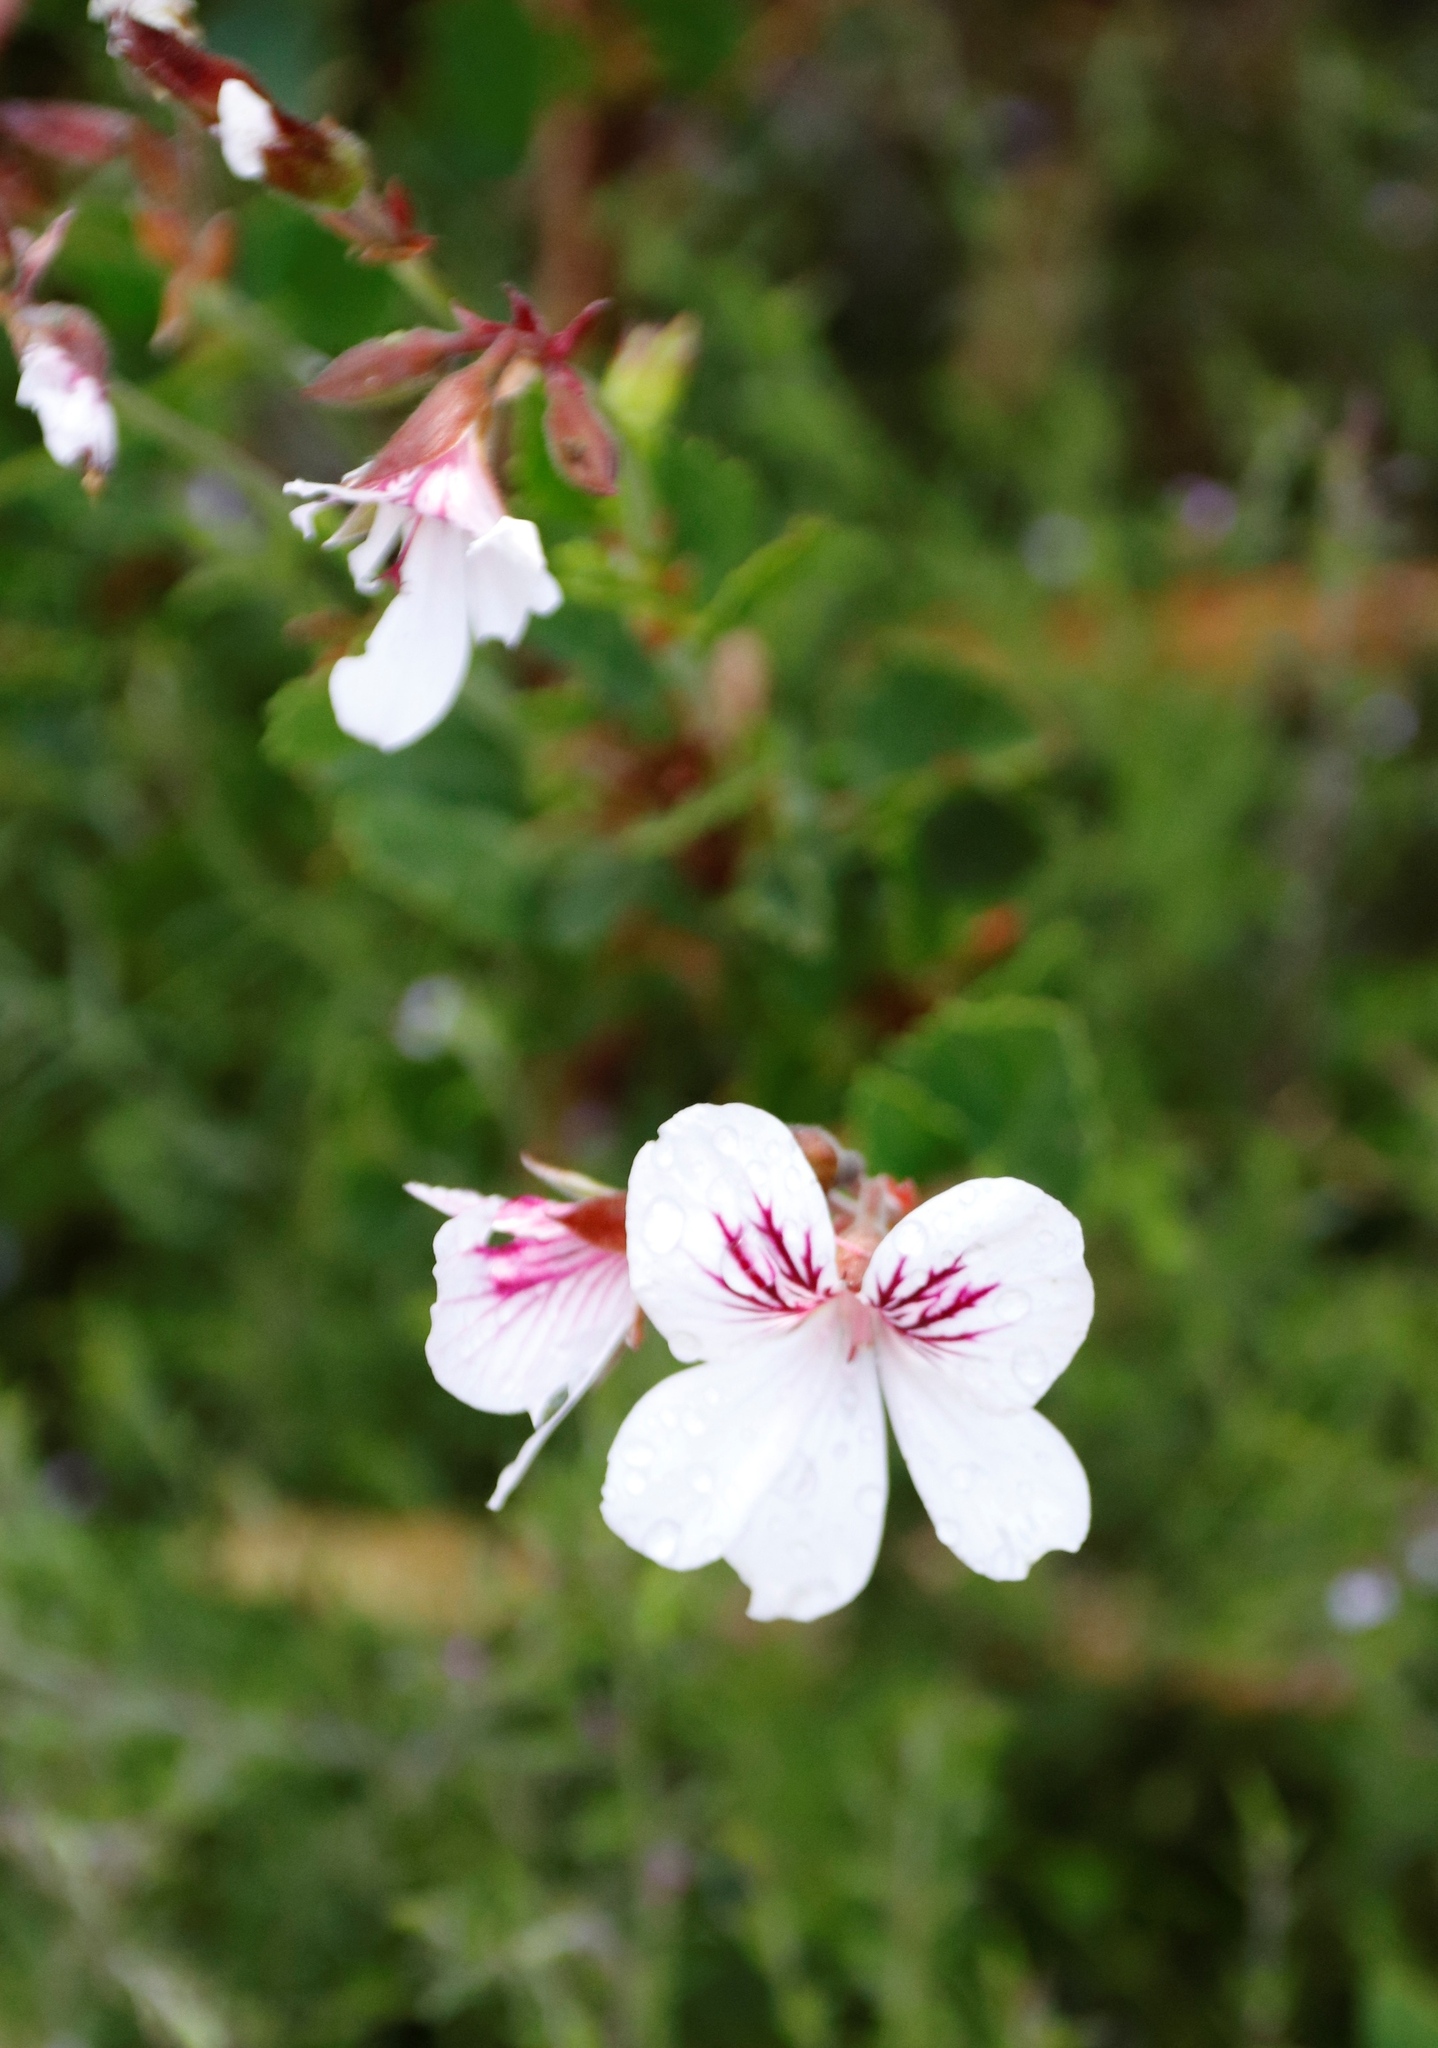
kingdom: Plantae
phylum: Tracheophyta
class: Magnoliopsida
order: Geraniales
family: Geraniaceae
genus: Pelargonium
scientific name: Pelargonium betulinum
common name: Birch-leaf pelargonium
